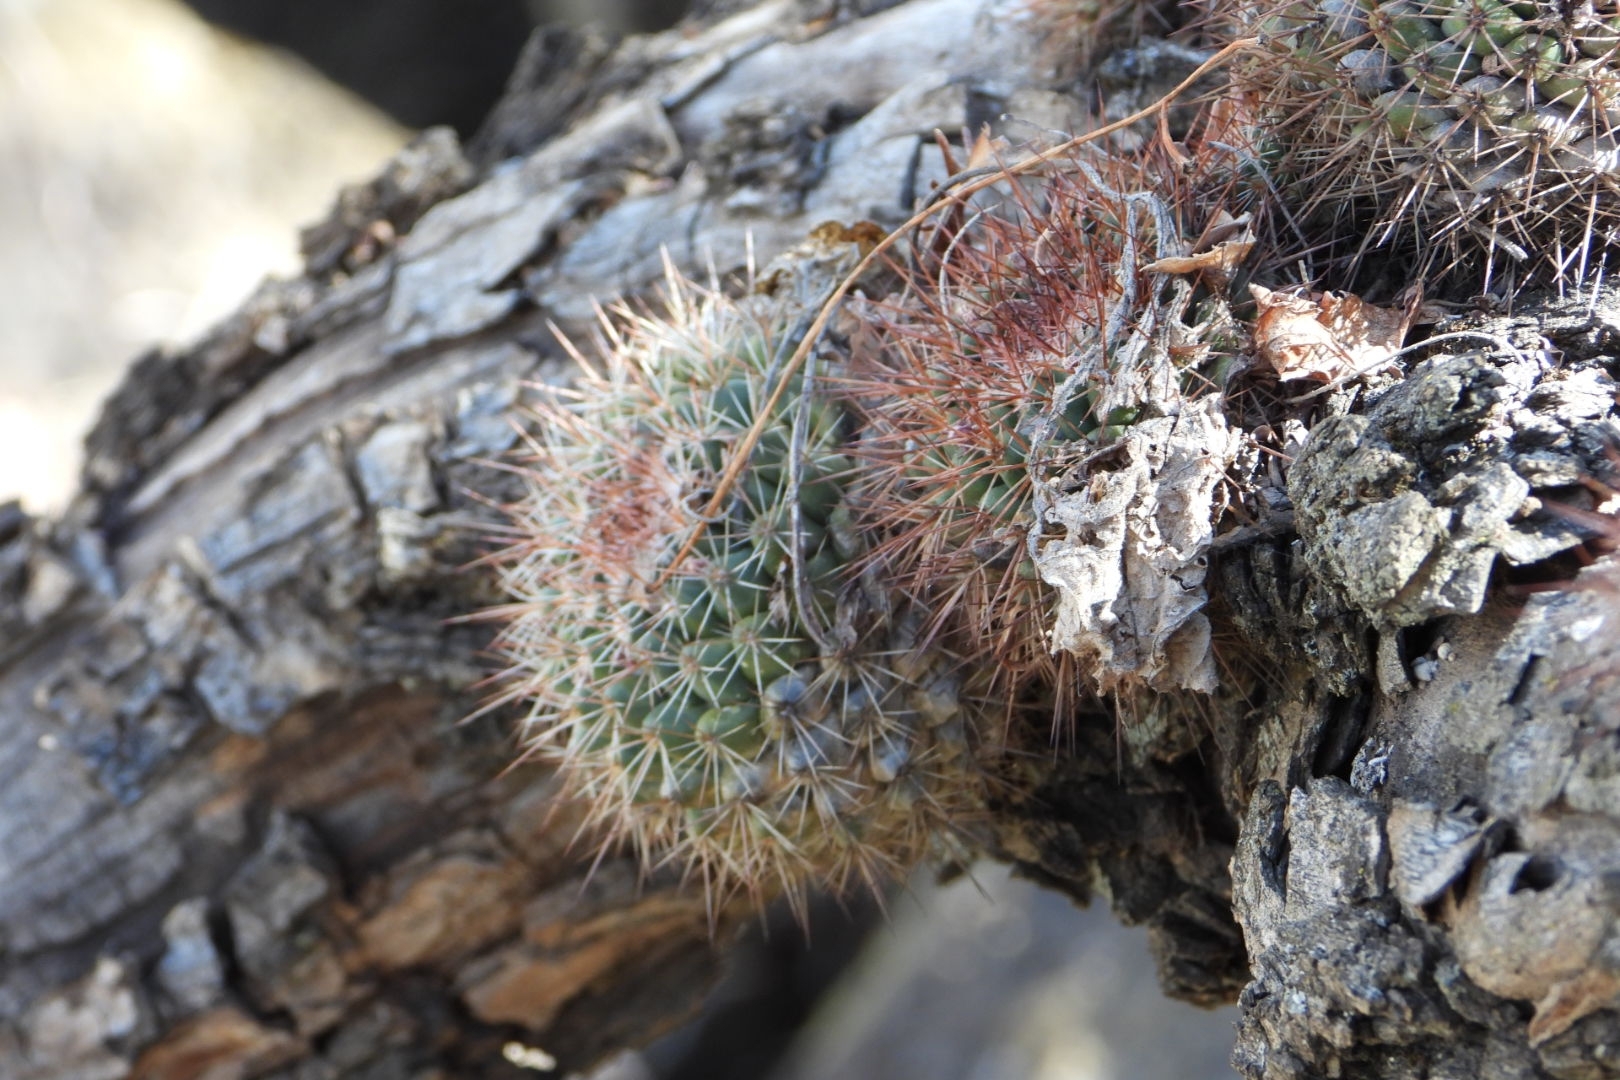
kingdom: Plantae
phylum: Tracheophyta
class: Magnoliopsida
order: Caryophyllales
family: Cactaceae
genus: Mammillaria
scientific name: Mammillaria scrippsiana
